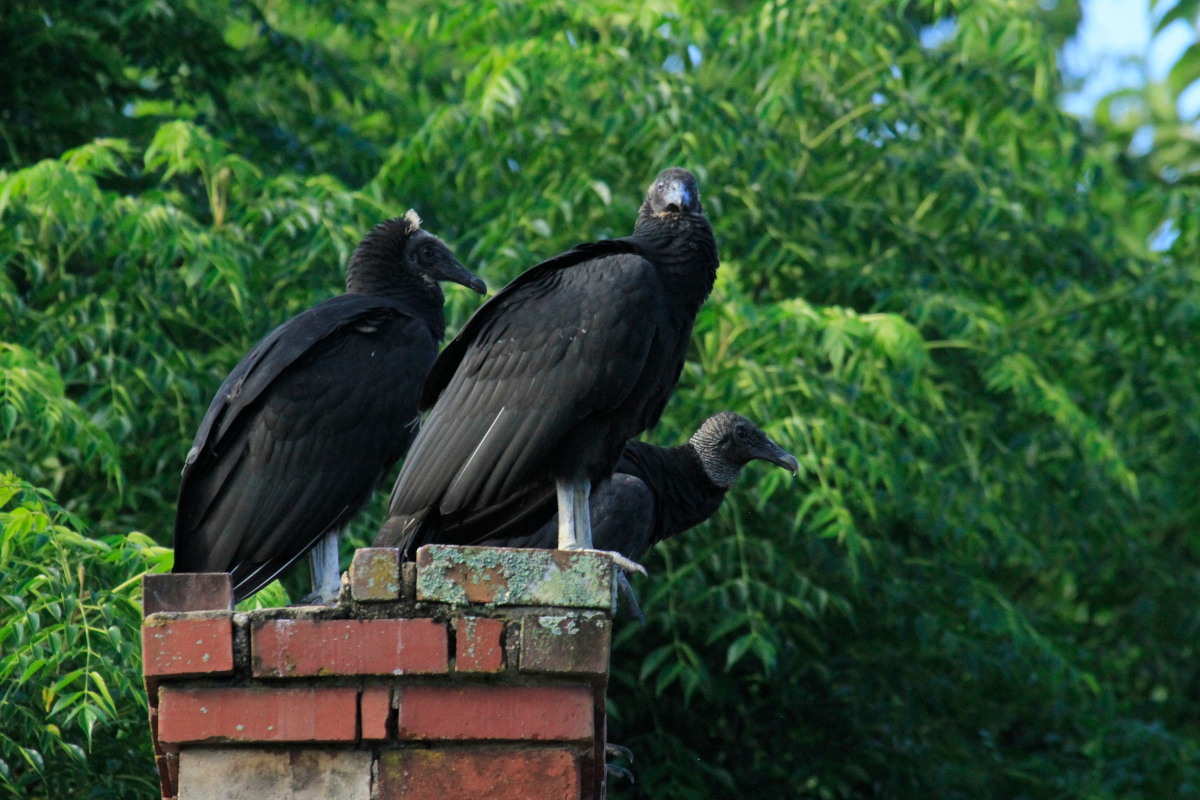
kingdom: Animalia
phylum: Chordata
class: Aves
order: Accipitriformes
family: Cathartidae
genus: Coragyps
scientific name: Coragyps atratus
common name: Black vulture
